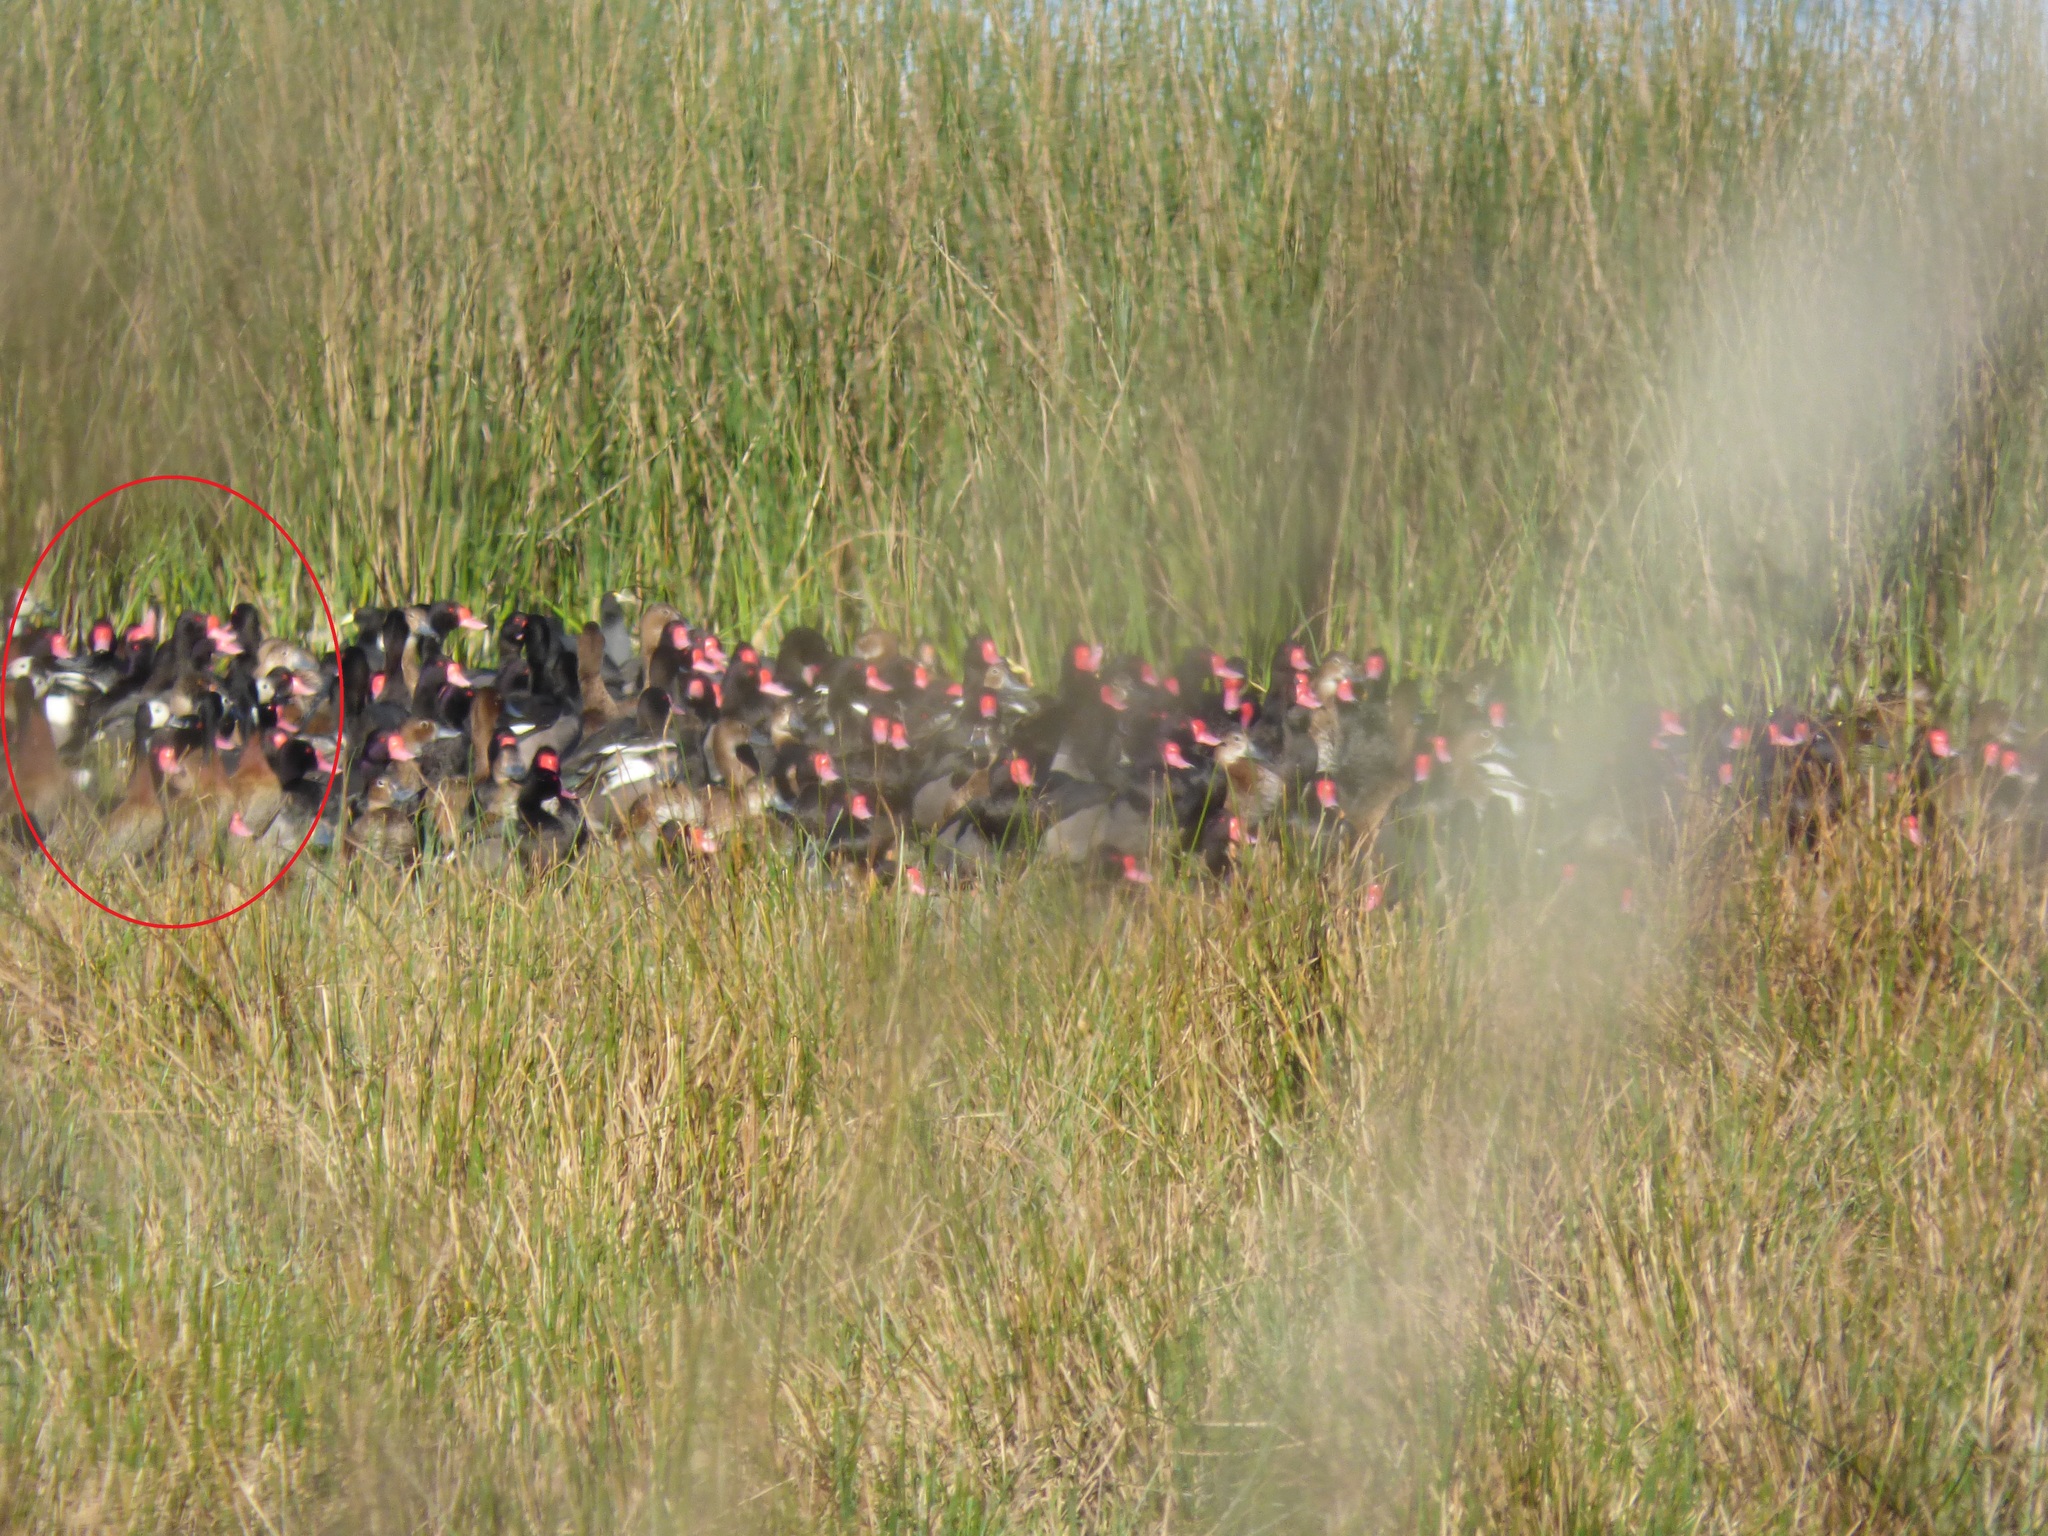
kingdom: Animalia
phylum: Chordata
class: Aves
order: Anseriformes
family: Anatidae
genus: Dendrocygna
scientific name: Dendrocygna viduata
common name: White-faced whistling duck
